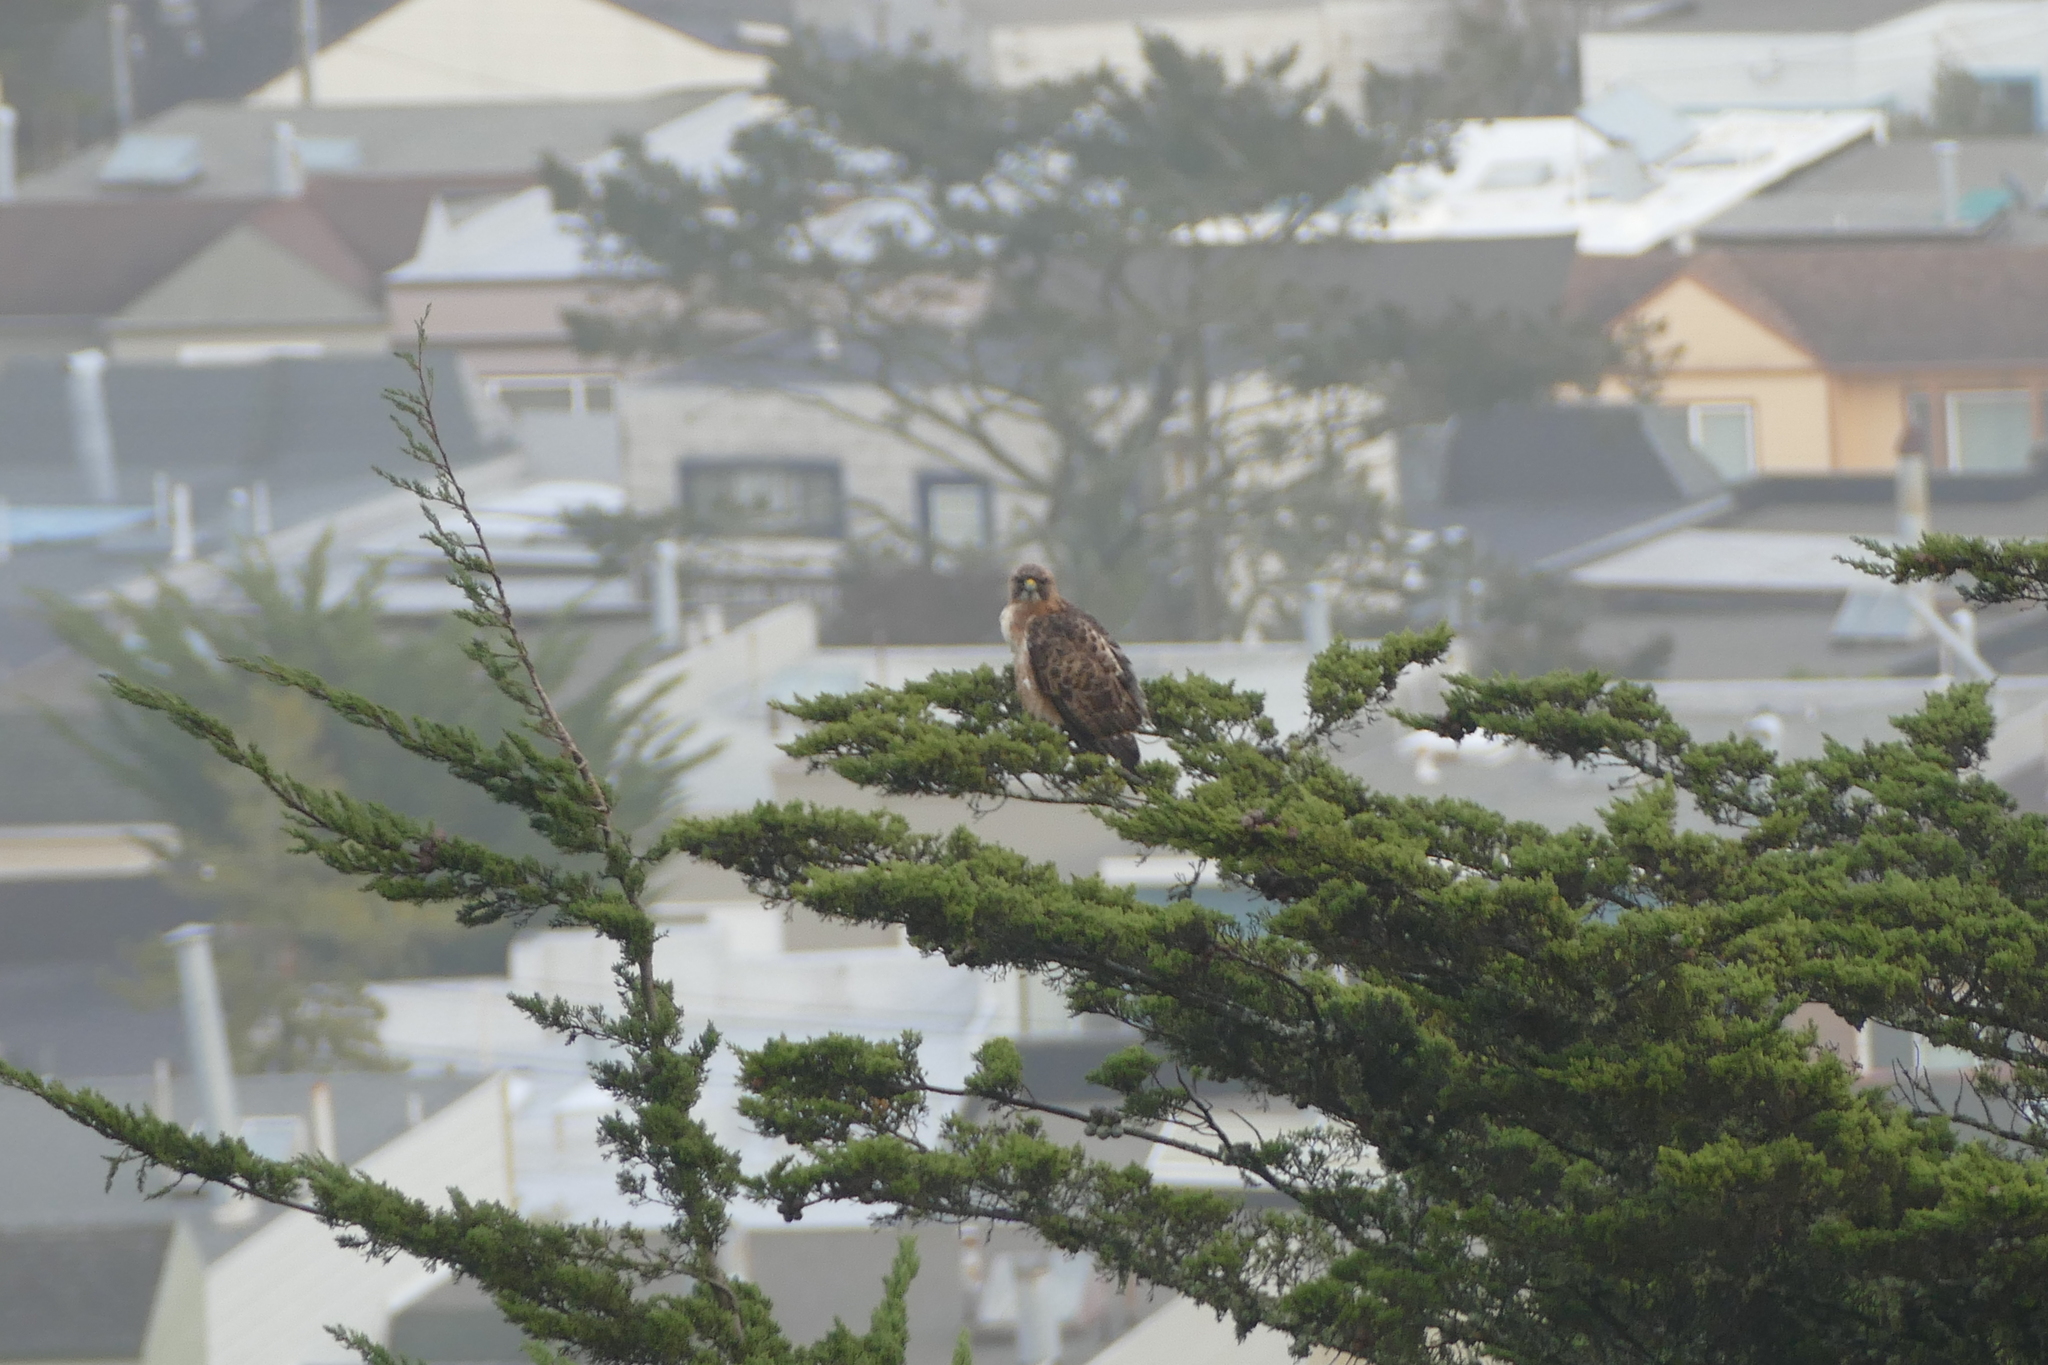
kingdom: Animalia
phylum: Chordata
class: Aves
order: Accipitriformes
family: Accipitridae
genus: Buteo
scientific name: Buteo jamaicensis
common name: Red-tailed hawk
